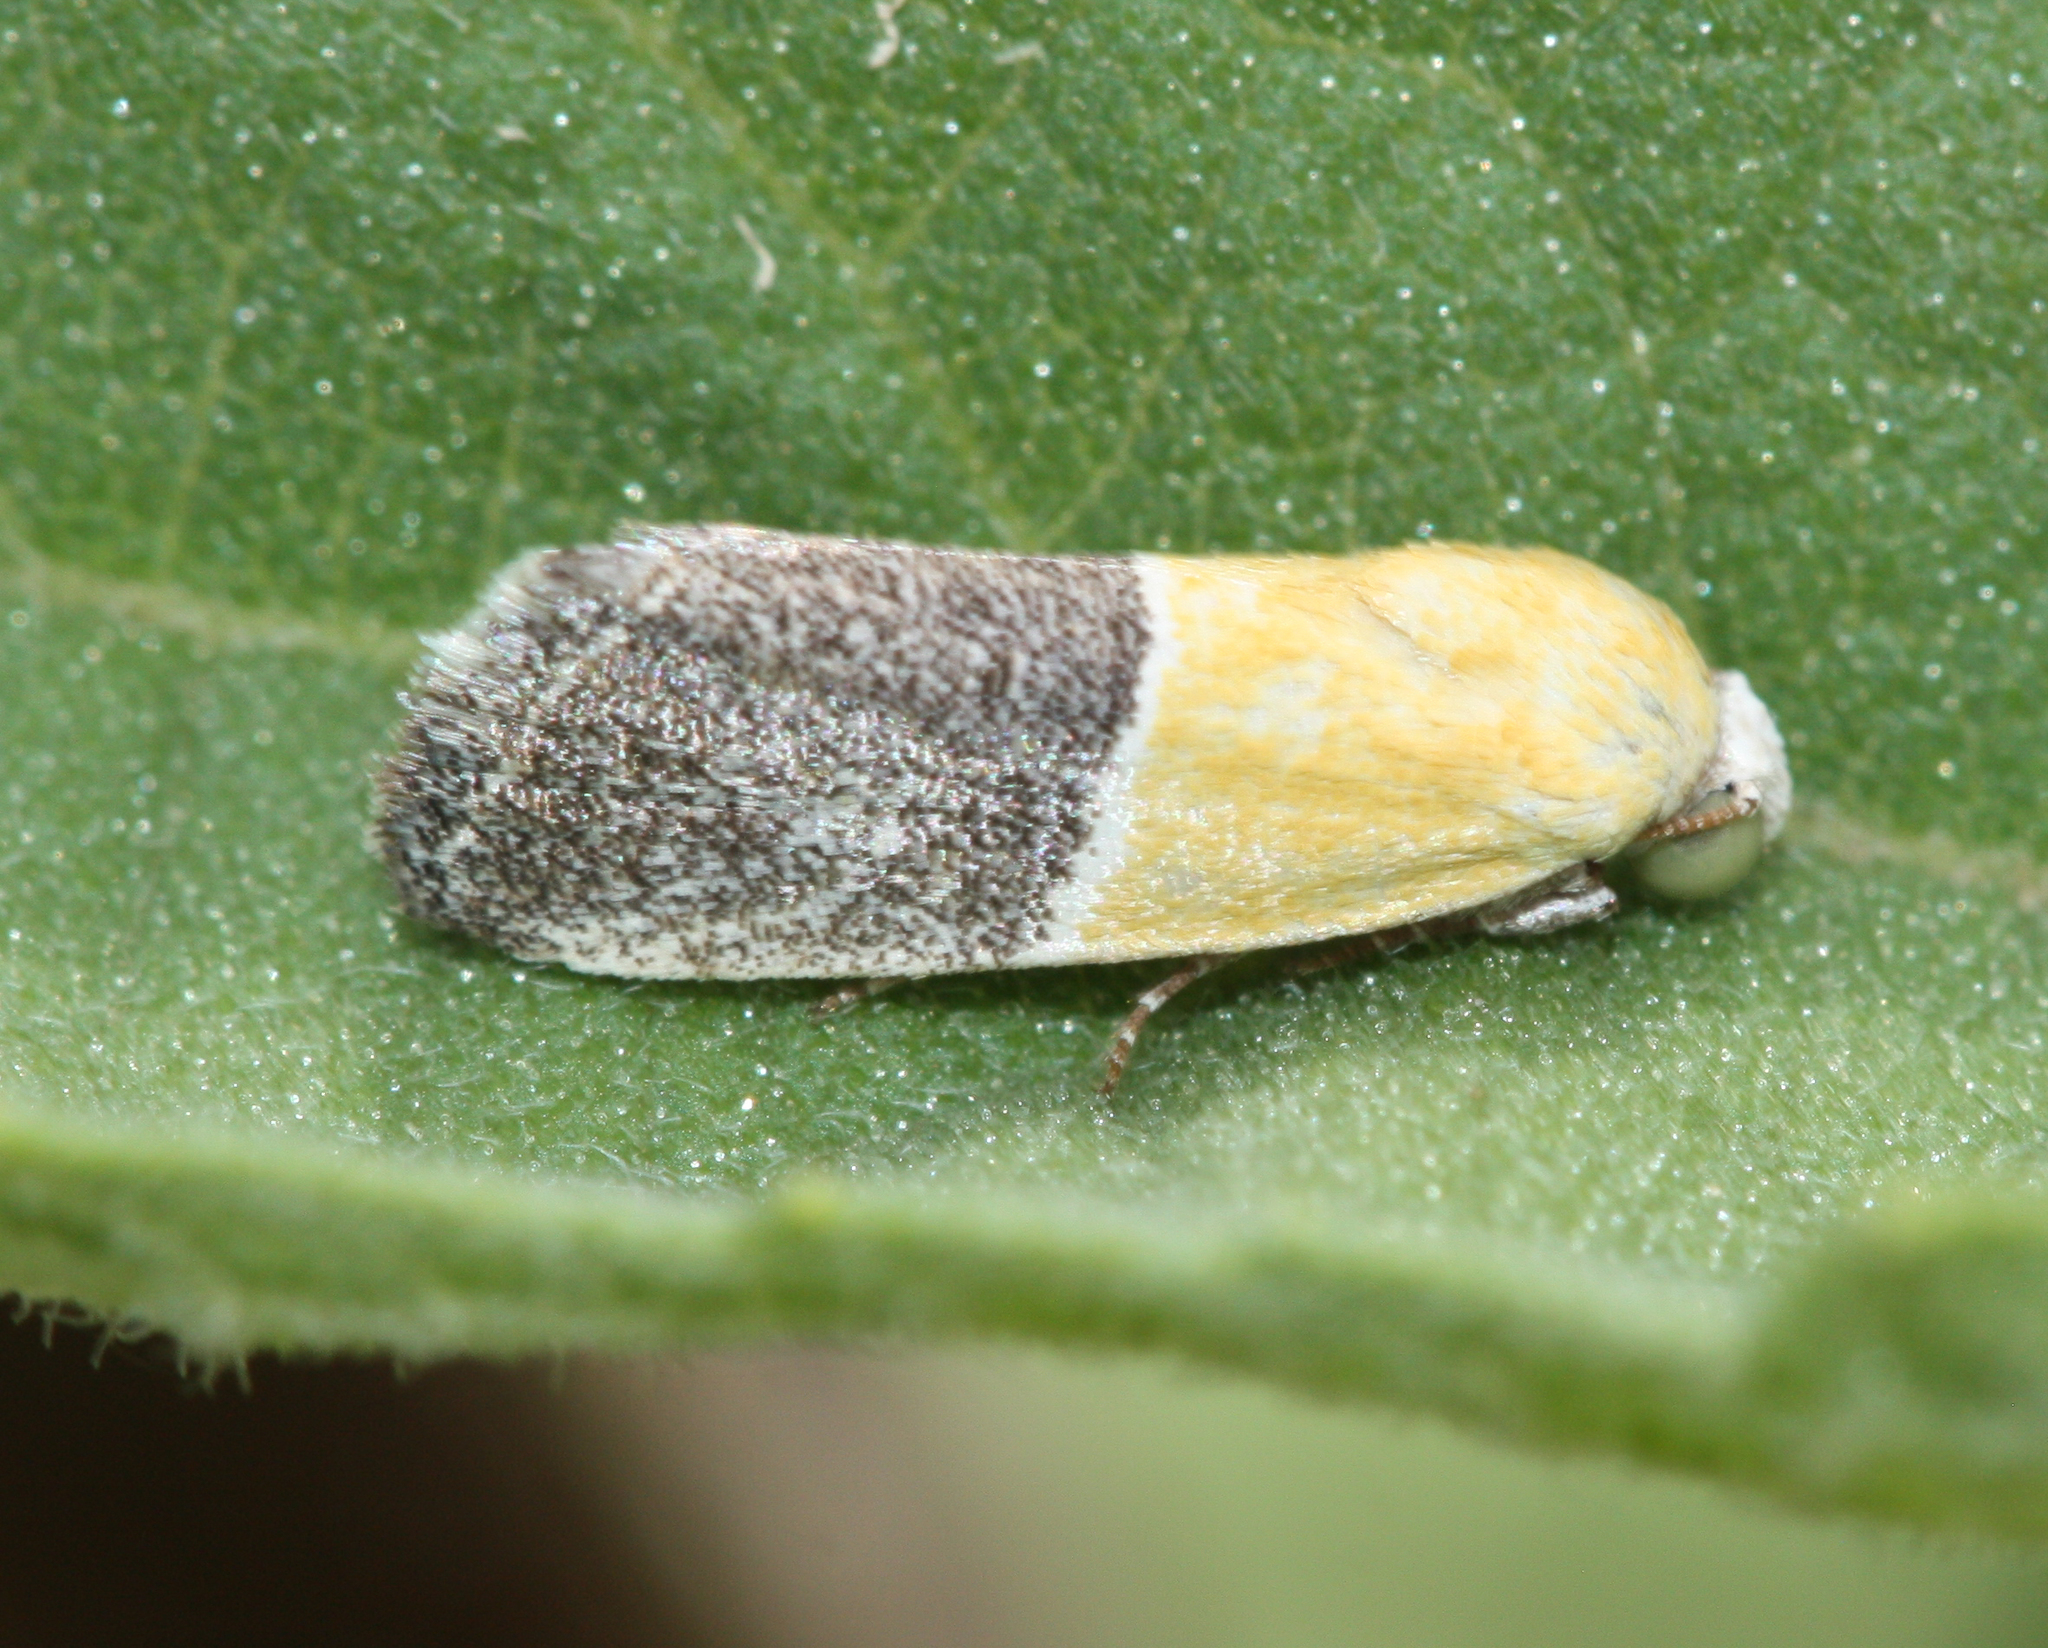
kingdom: Animalia
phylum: Arthropoda
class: Insecta
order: Lepidoptera
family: Noctuidae
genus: Acontia
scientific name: Acontia clausula
